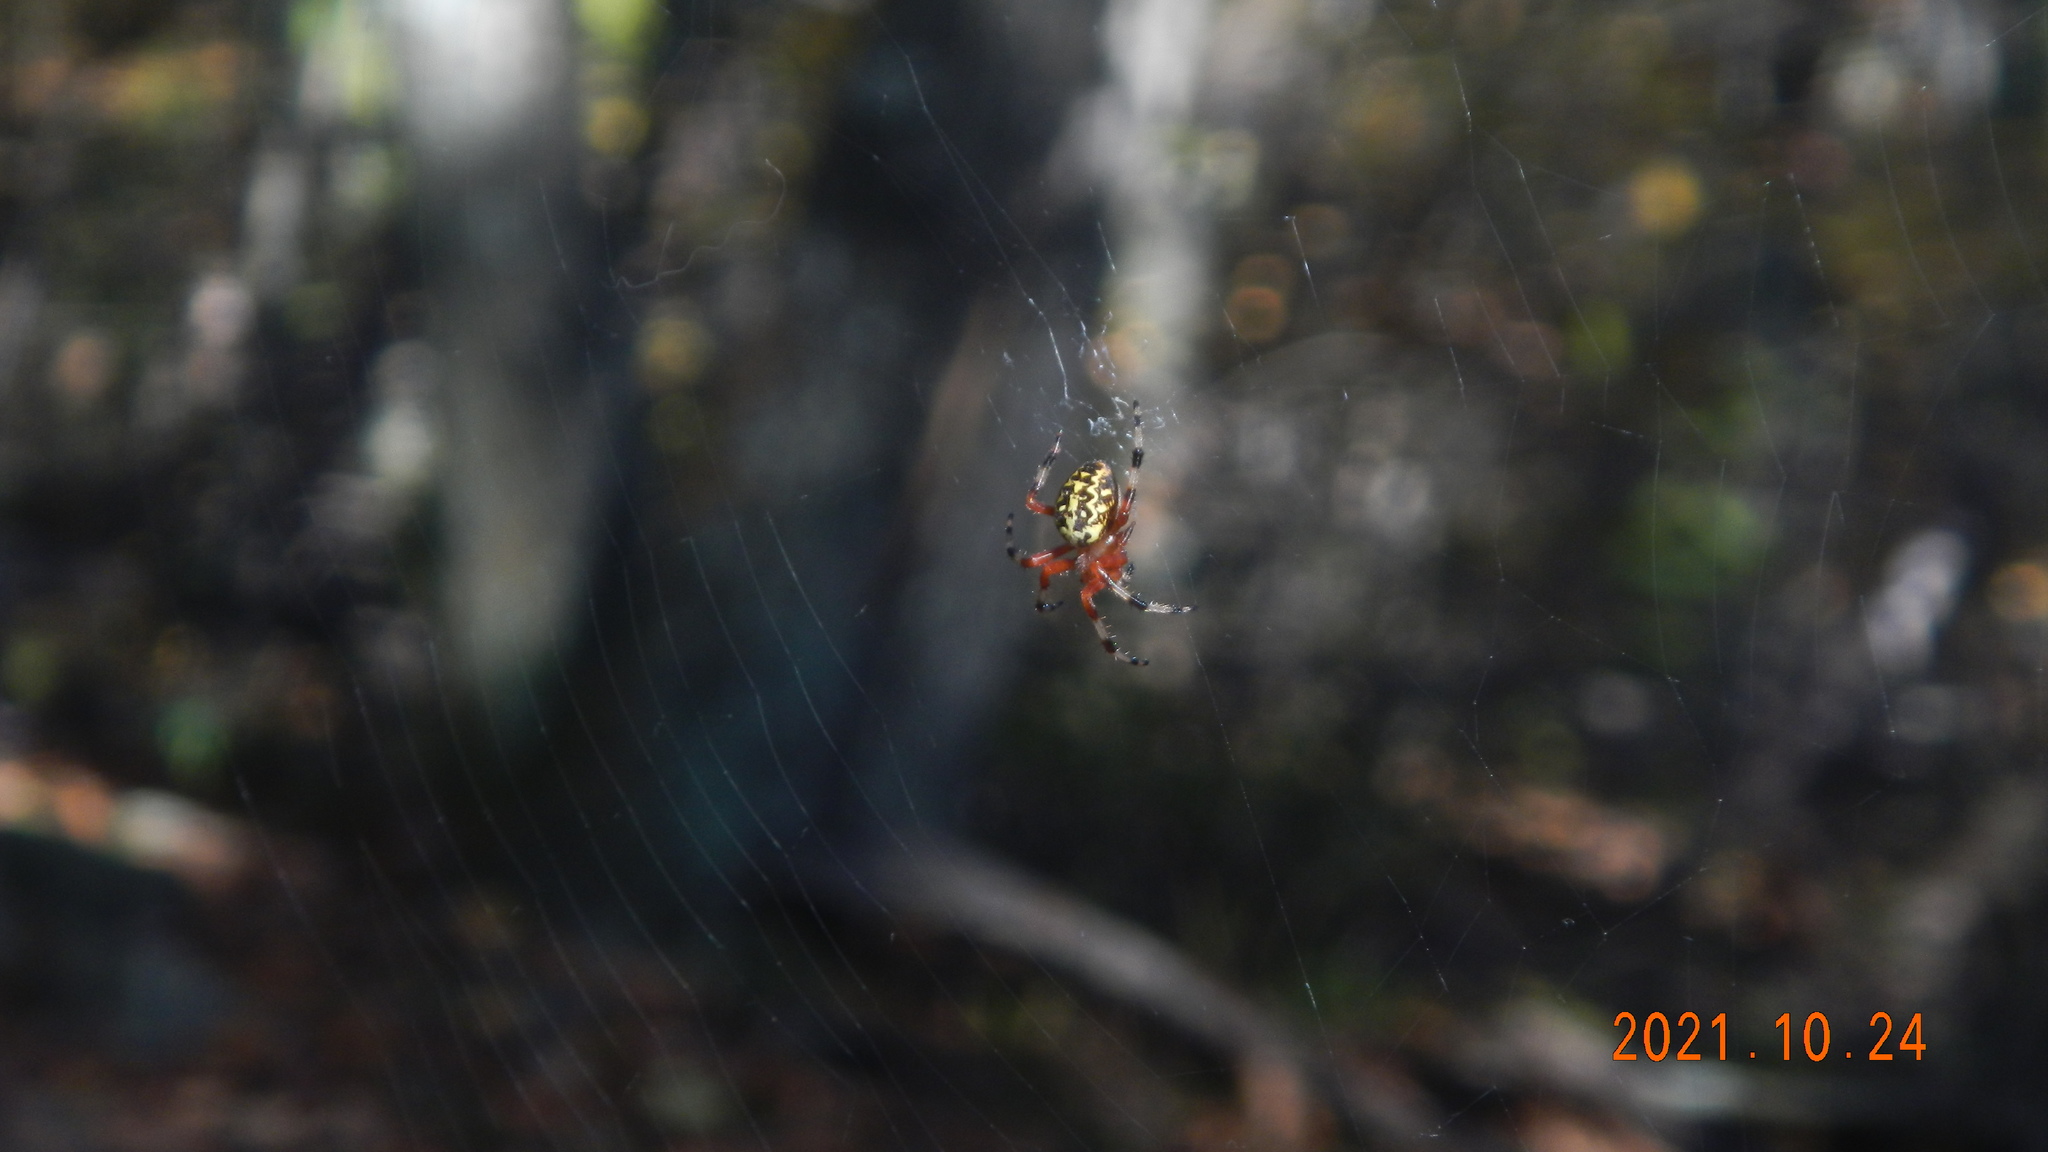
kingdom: Animalia
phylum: Arthropoda
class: Arachnida
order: Araneae
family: Araneidae
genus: Araneus
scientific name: Araneus marmoreus
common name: Marbled orbweaver
